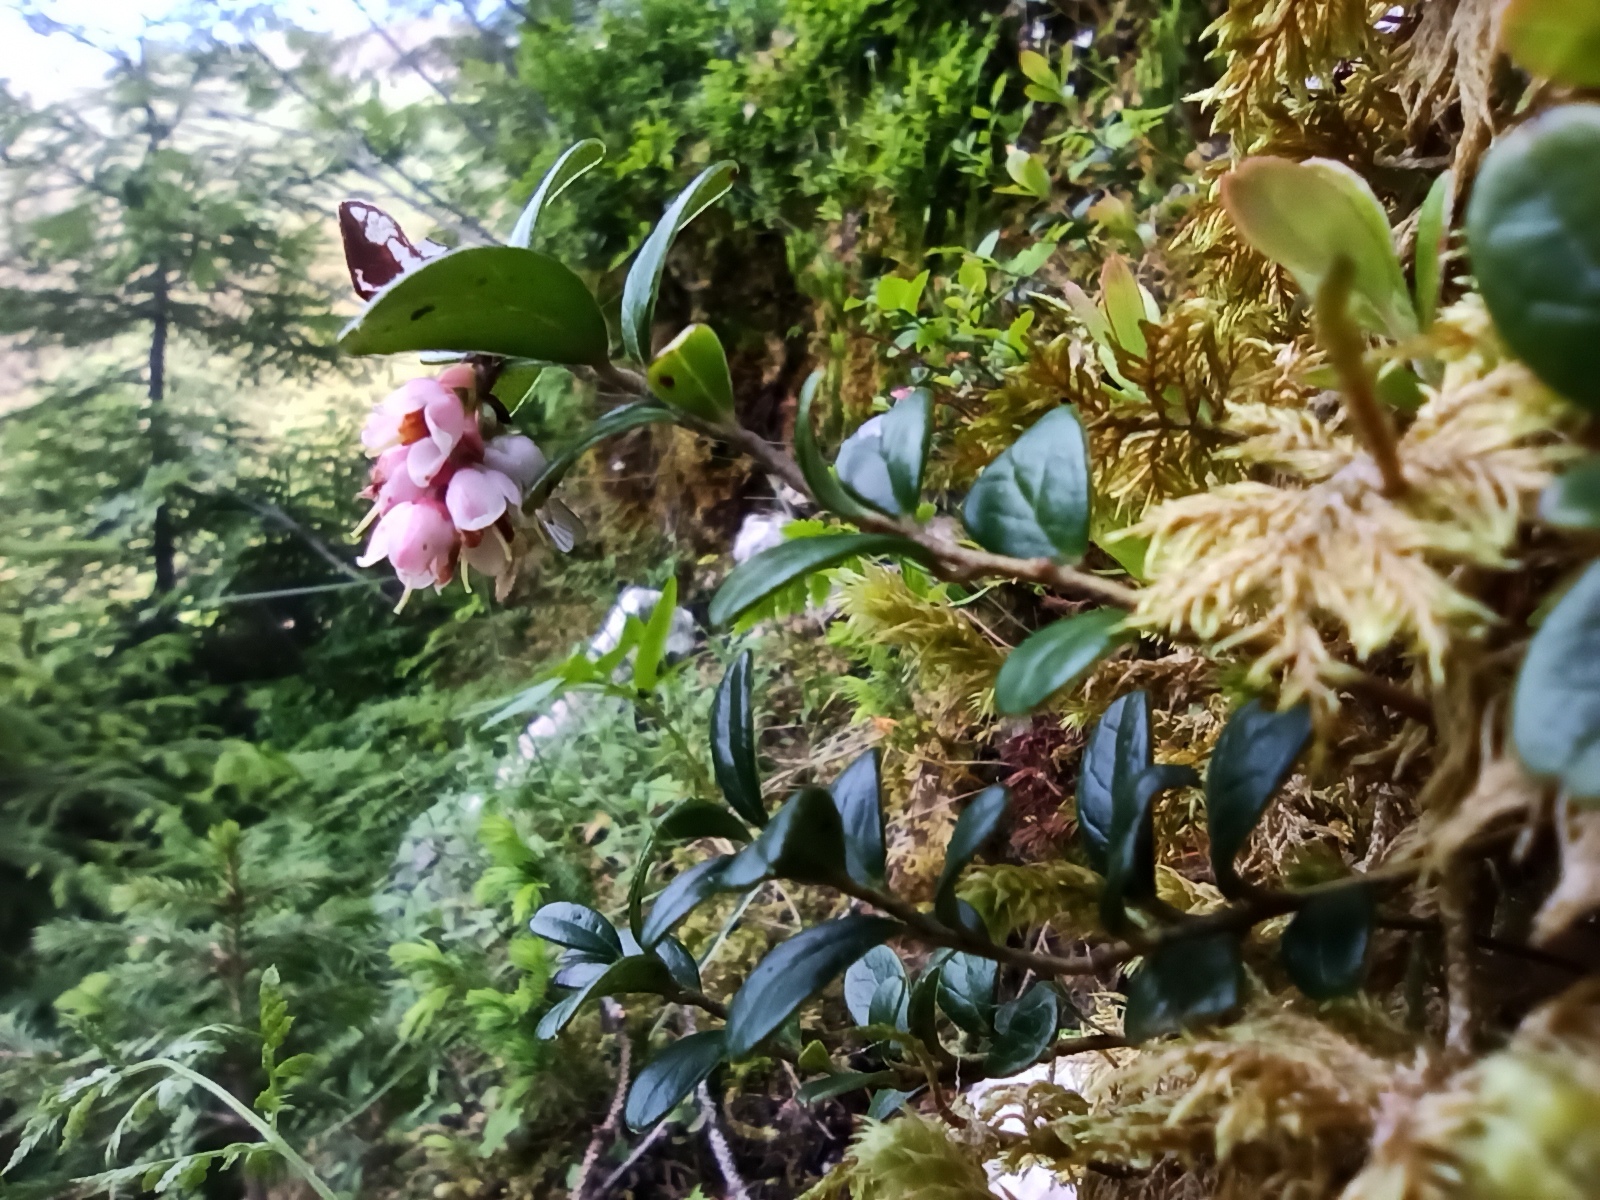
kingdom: Plantae
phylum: Tracheophyta
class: Magnoliopsida
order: Ericales
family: Ericaceae
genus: Vaccinium
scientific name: Vaccinium vitis-idaea
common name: Cowberry
